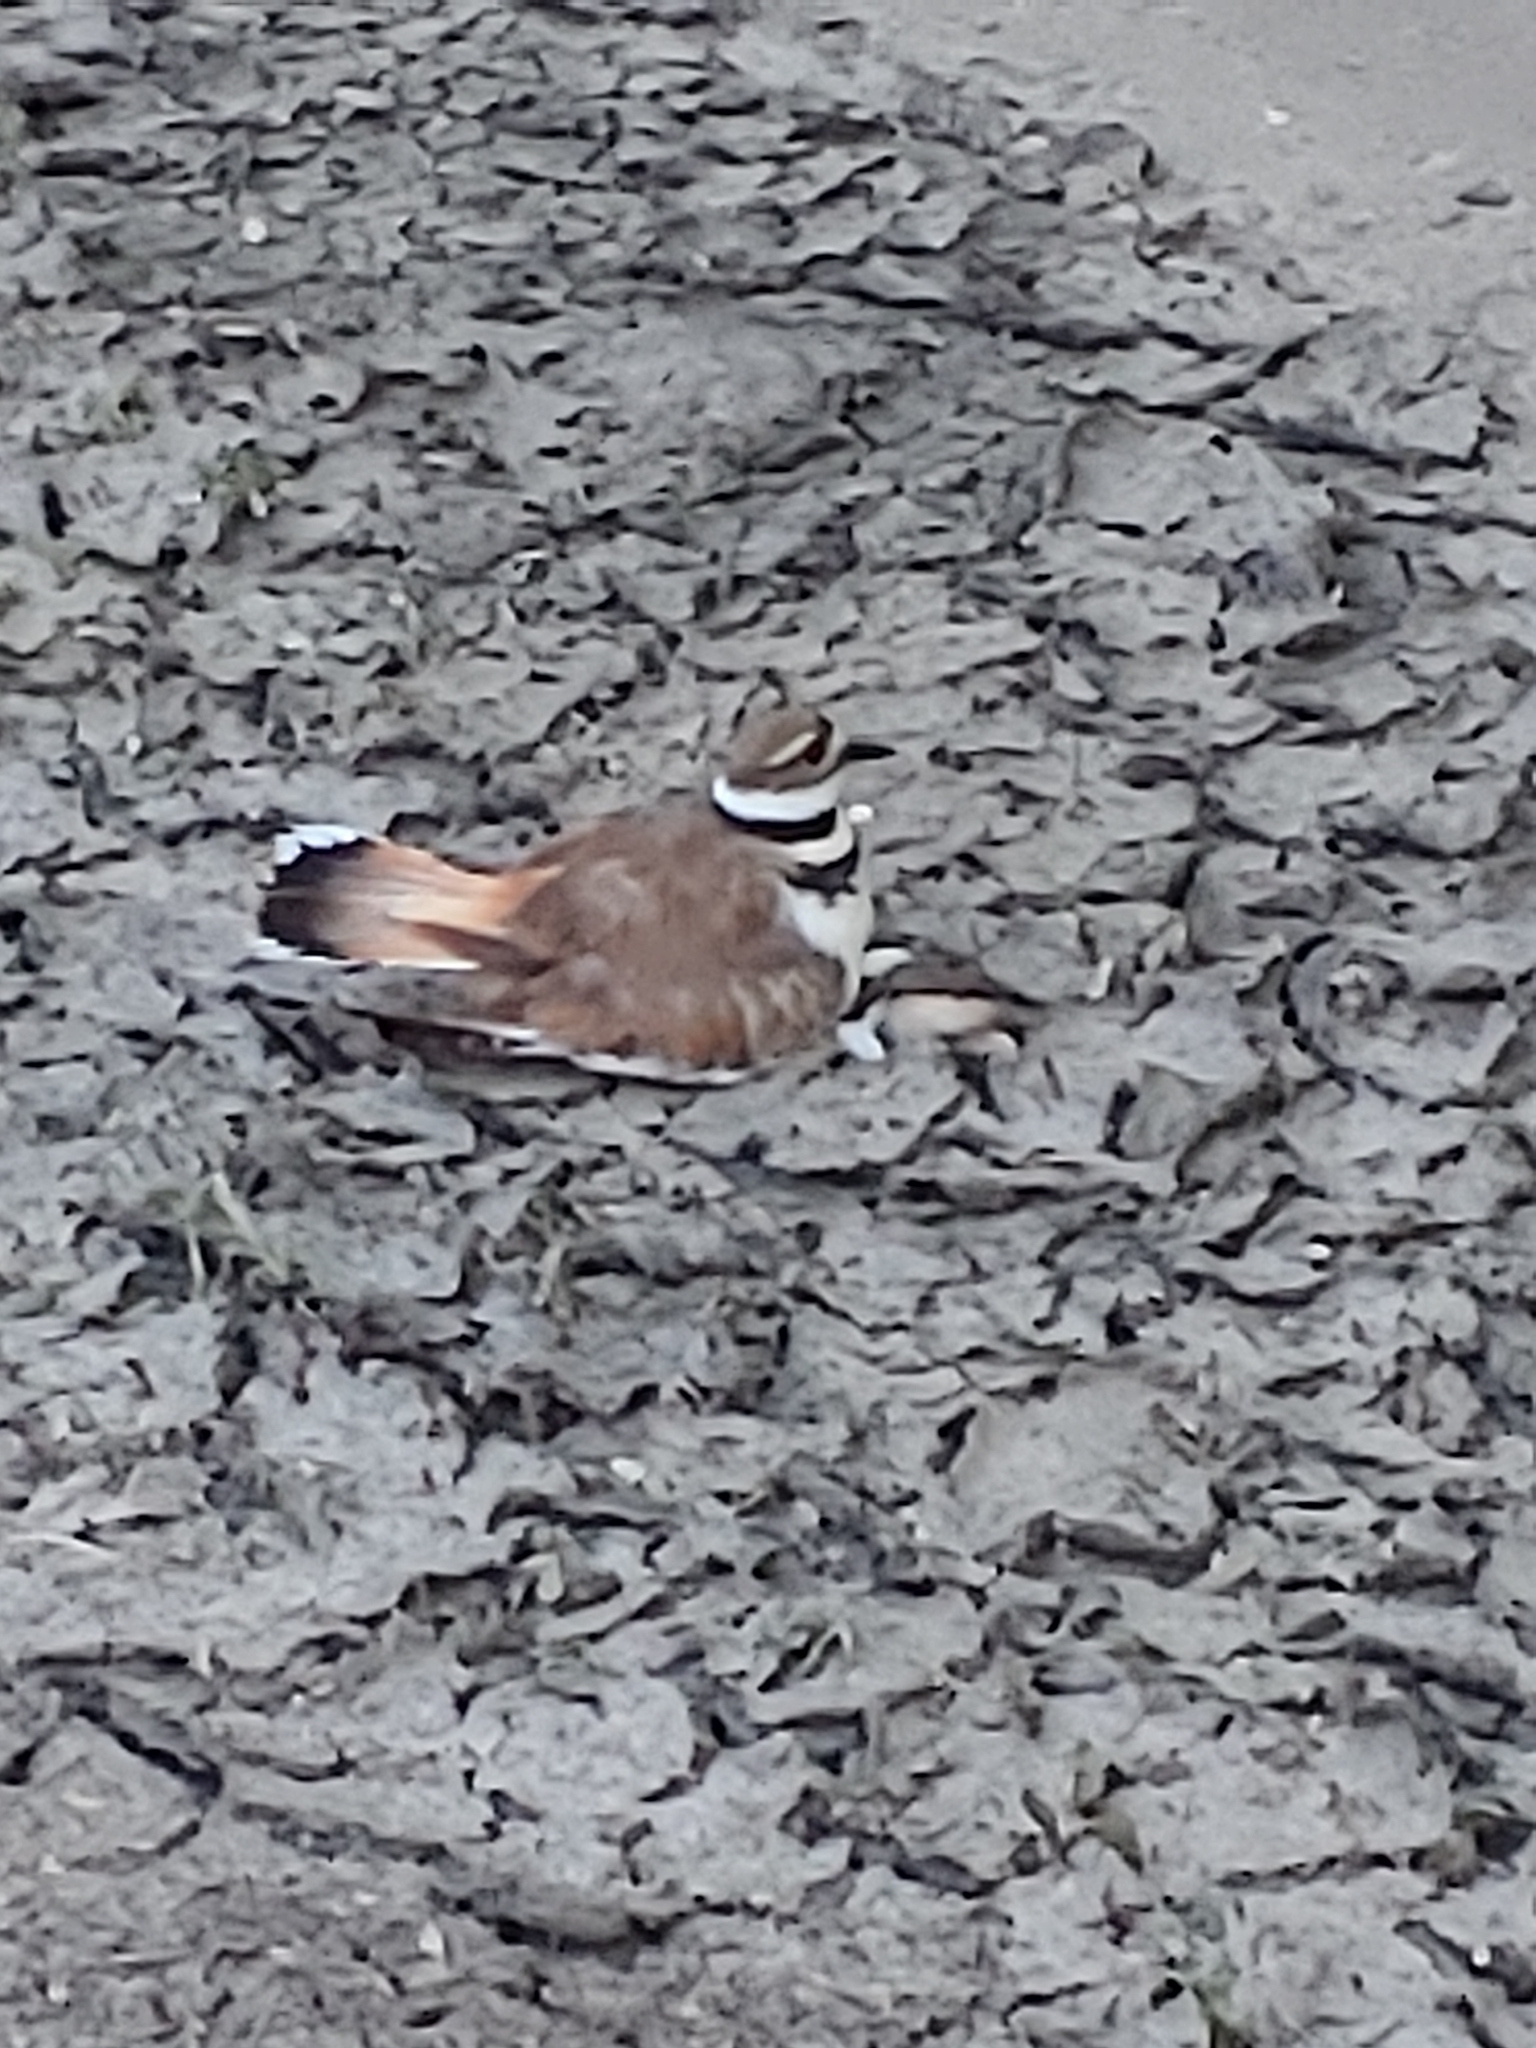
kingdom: Animalia
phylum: Chordata
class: Aves
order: Charadriiformes
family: Charadriidae
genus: Charadrius
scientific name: Charadrius vociferus
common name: Killdeer
